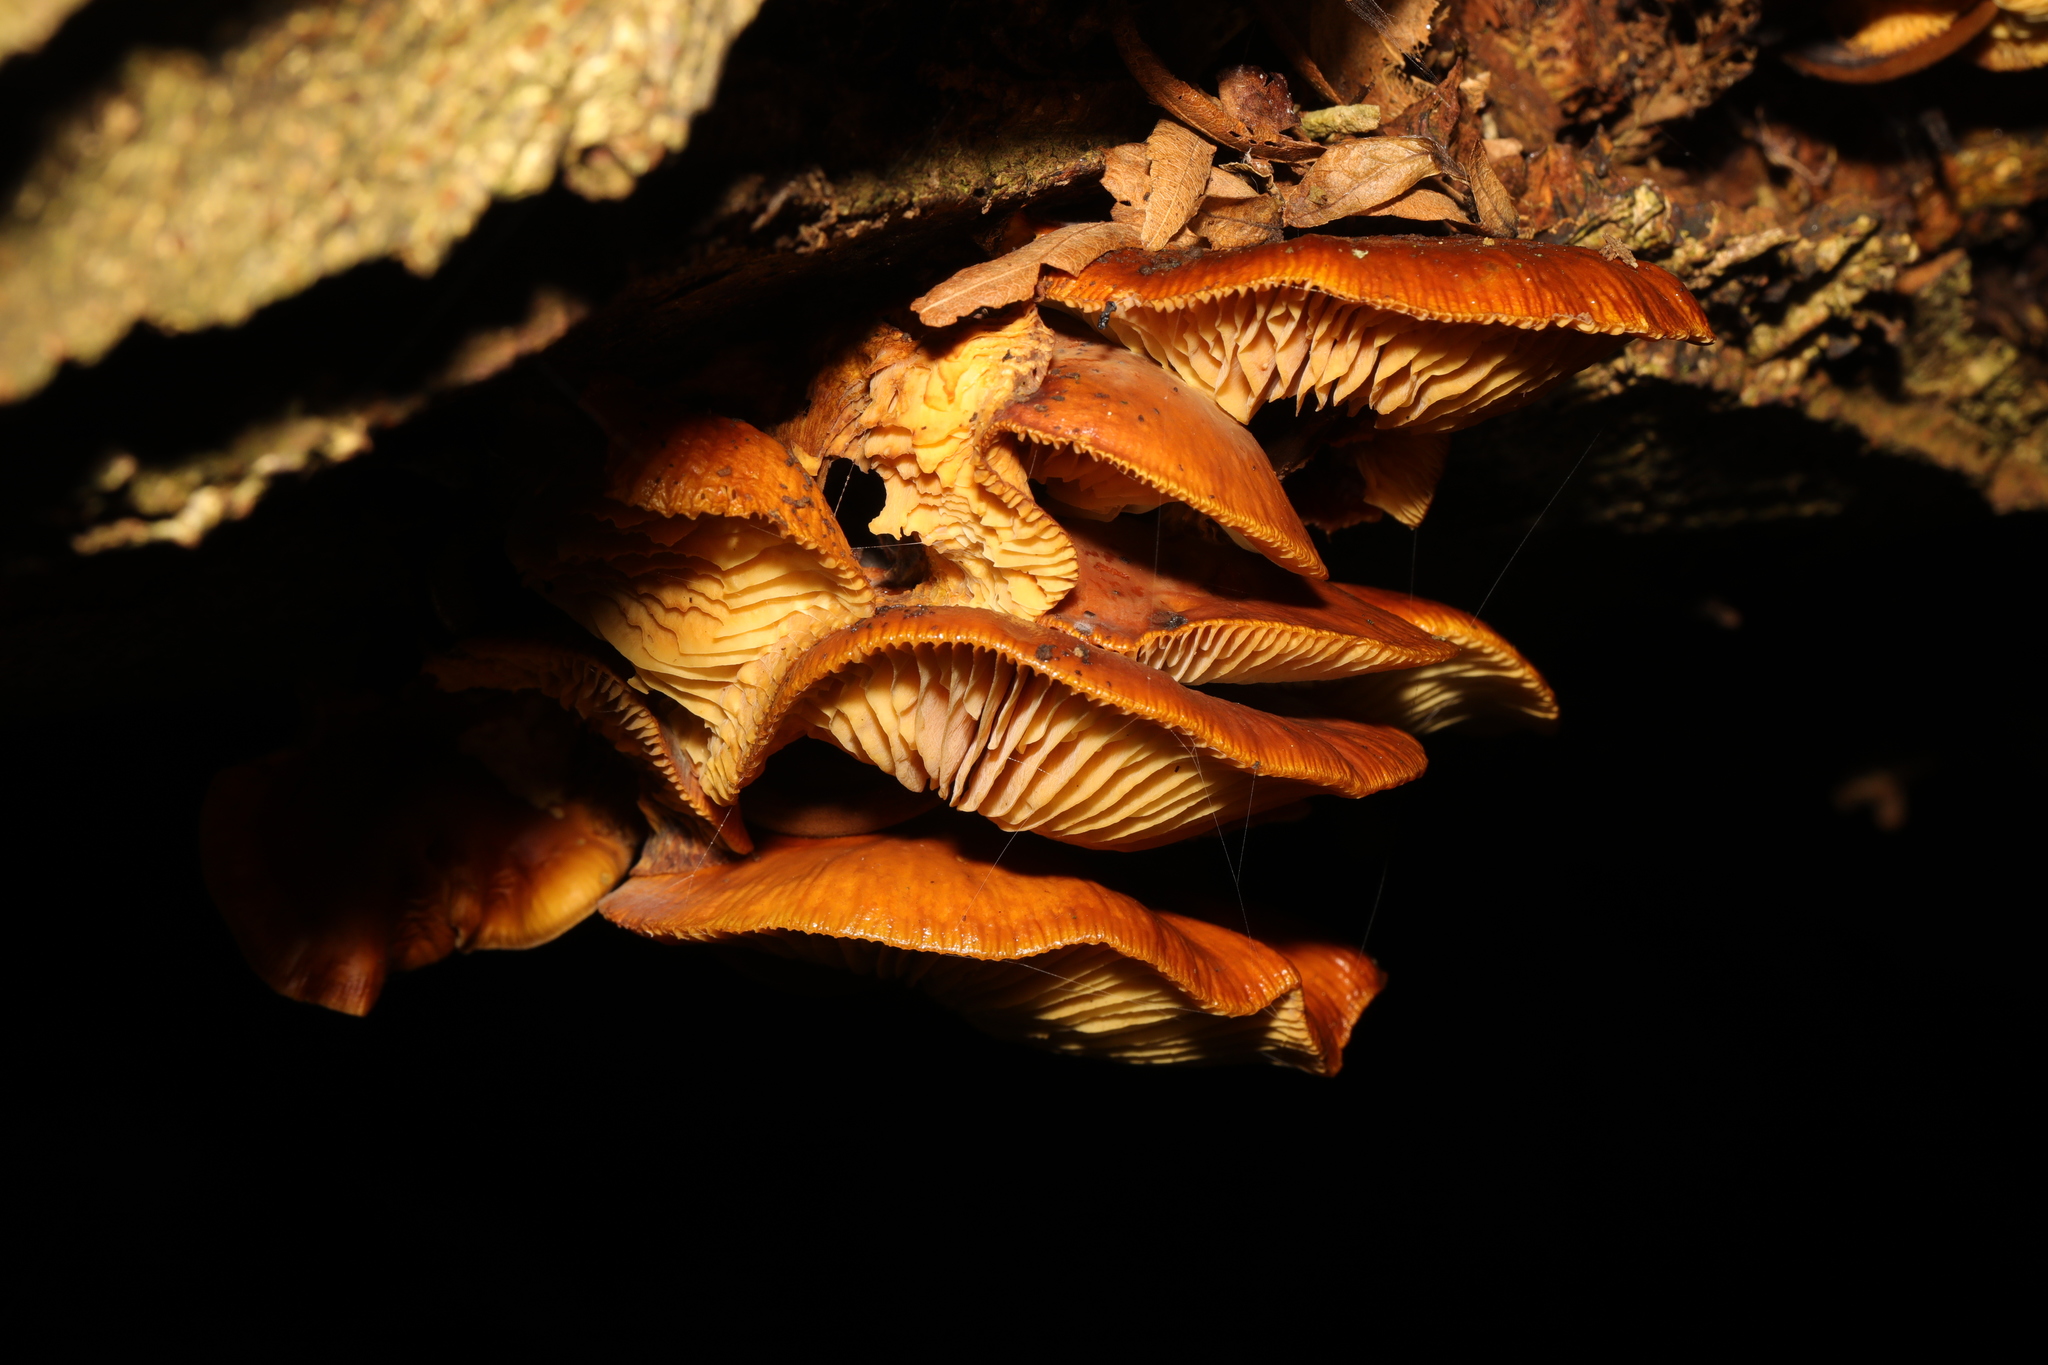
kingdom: Fungi
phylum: Basidiomycota
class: Agaricomycetes
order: Agaricales
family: Physalacriaceae
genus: Flammulina
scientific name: Flammulina
